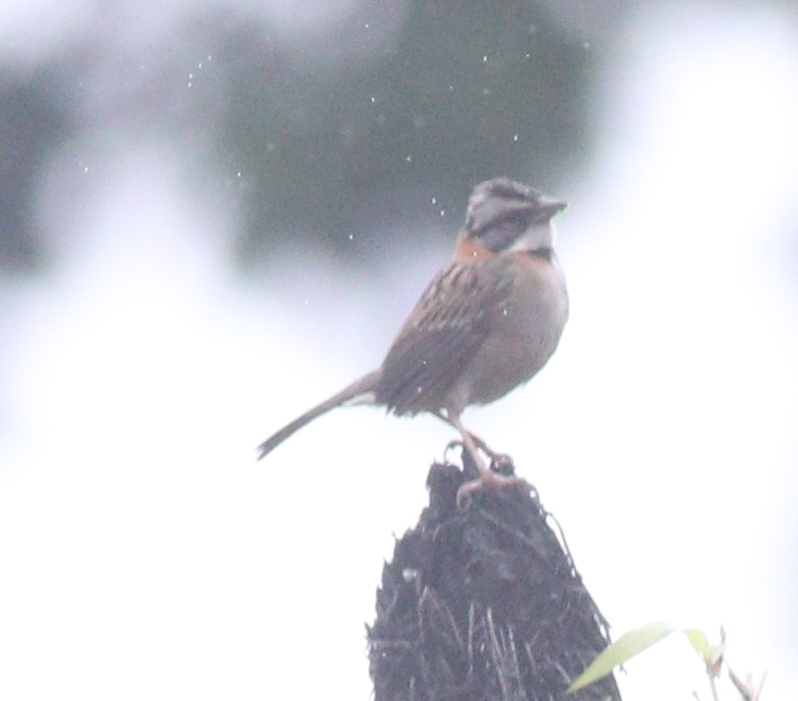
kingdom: Animalia
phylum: Chordata
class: Aves
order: Passeriformes
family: Passerellidae
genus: Zonotrichia
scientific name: Zonotrichia capensis
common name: Rufous-collared sparrow
